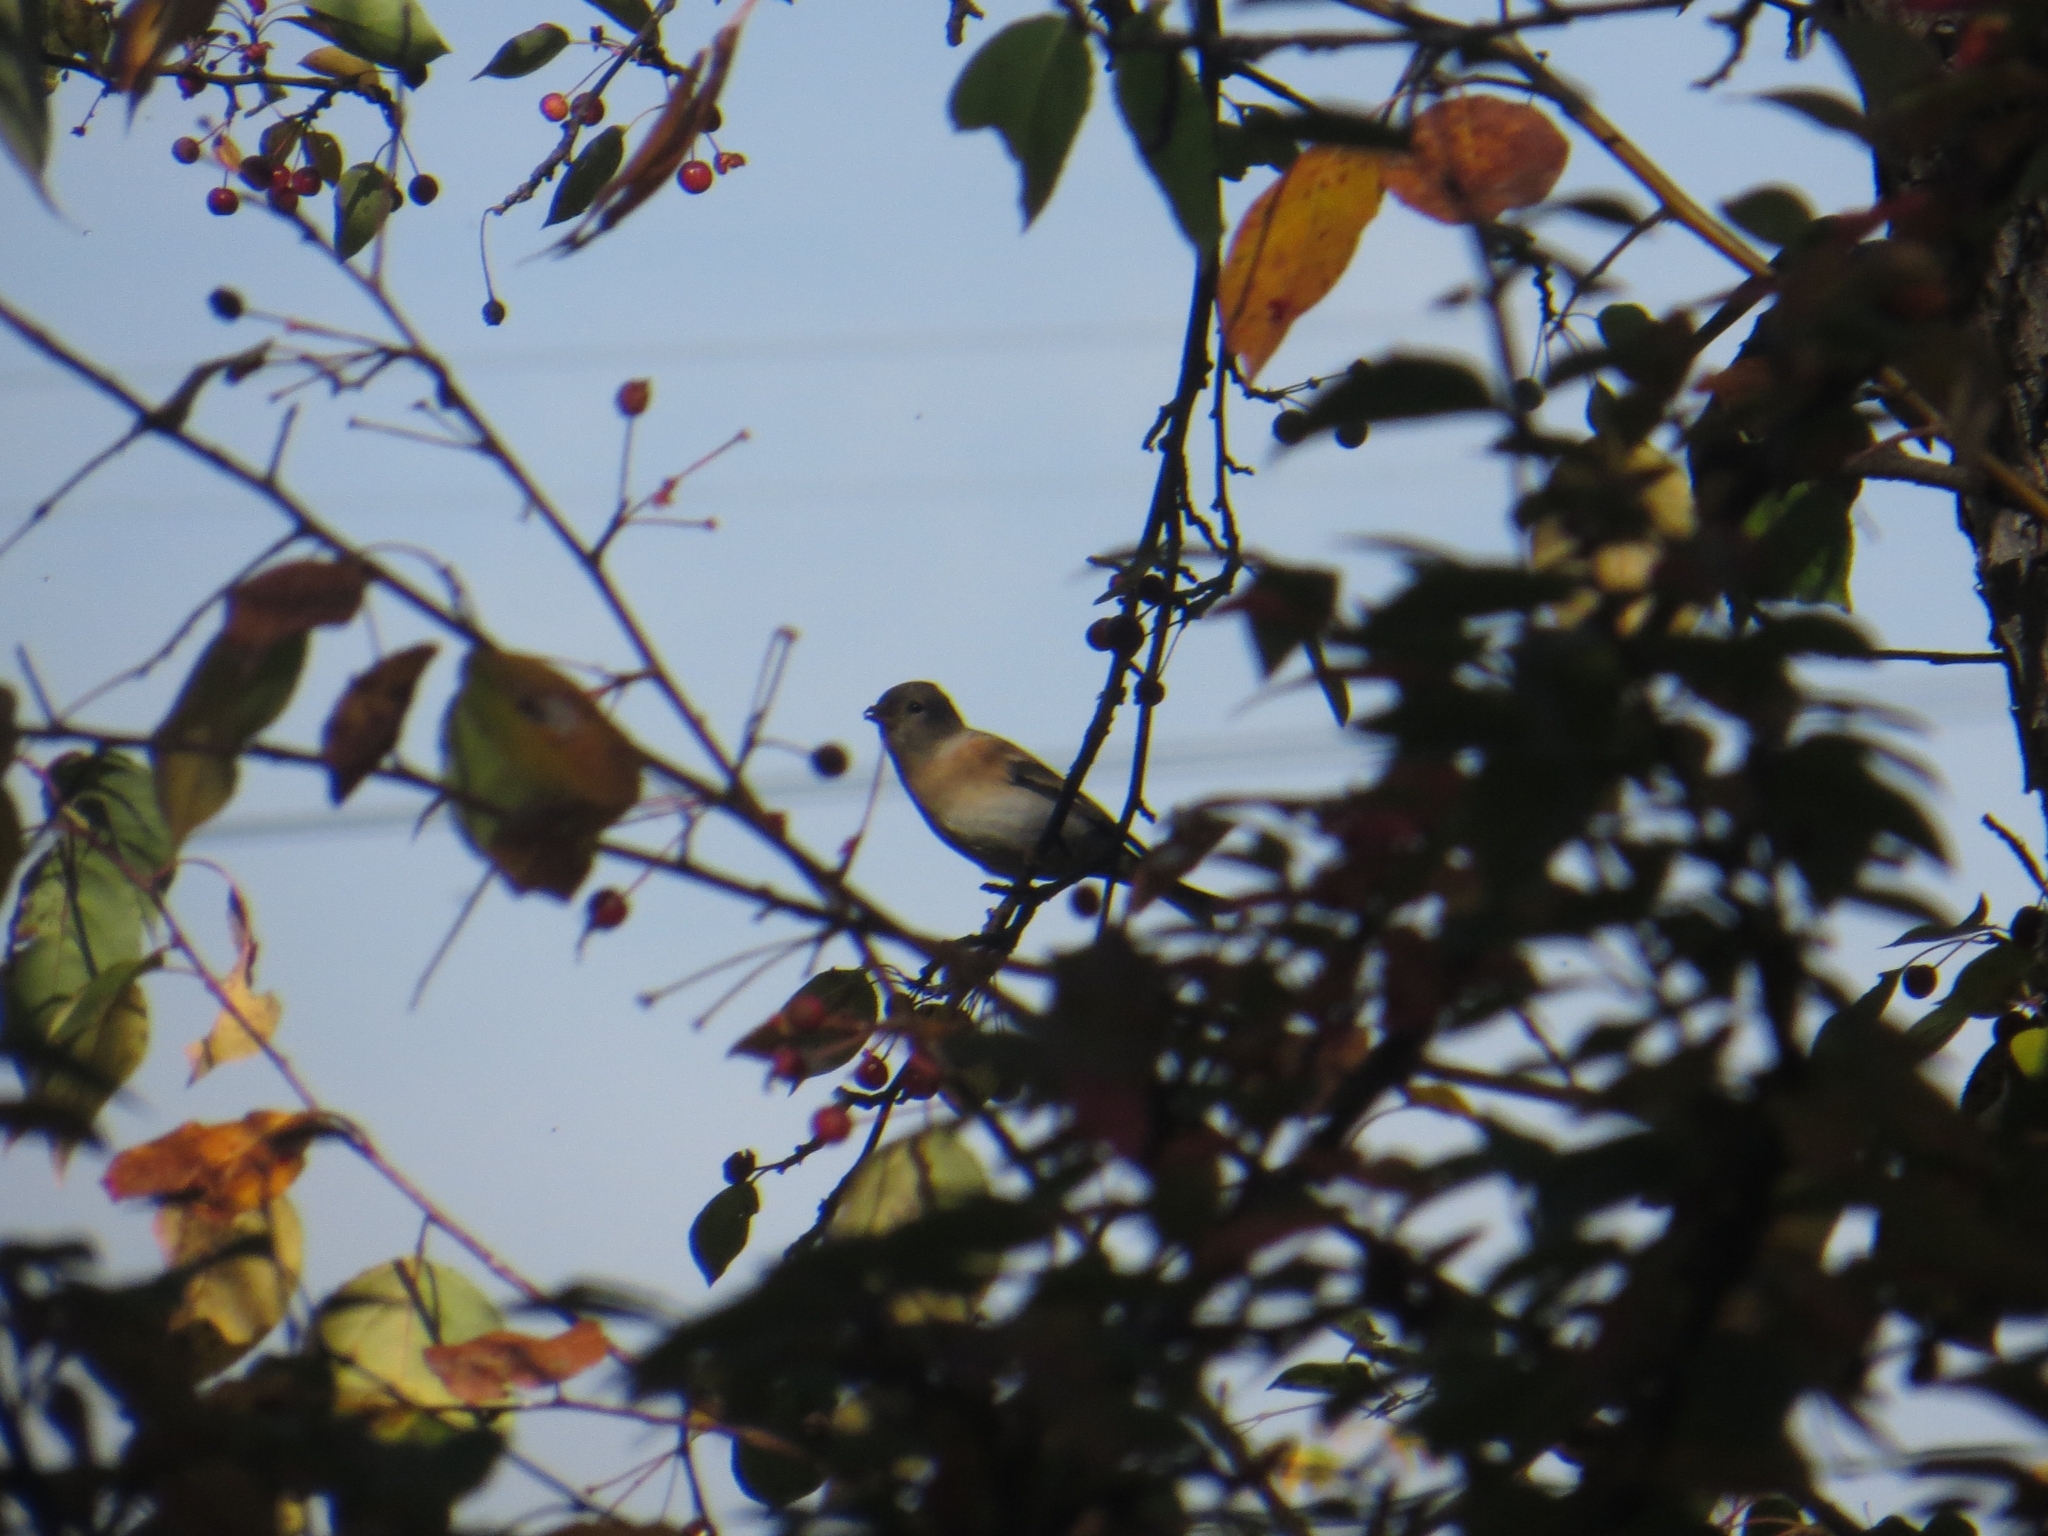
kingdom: Animalia
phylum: Chordata
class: Aves
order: Passeriformes
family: Fringillidae
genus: Fringilla
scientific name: Fringilla montifringilla
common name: Brambling
